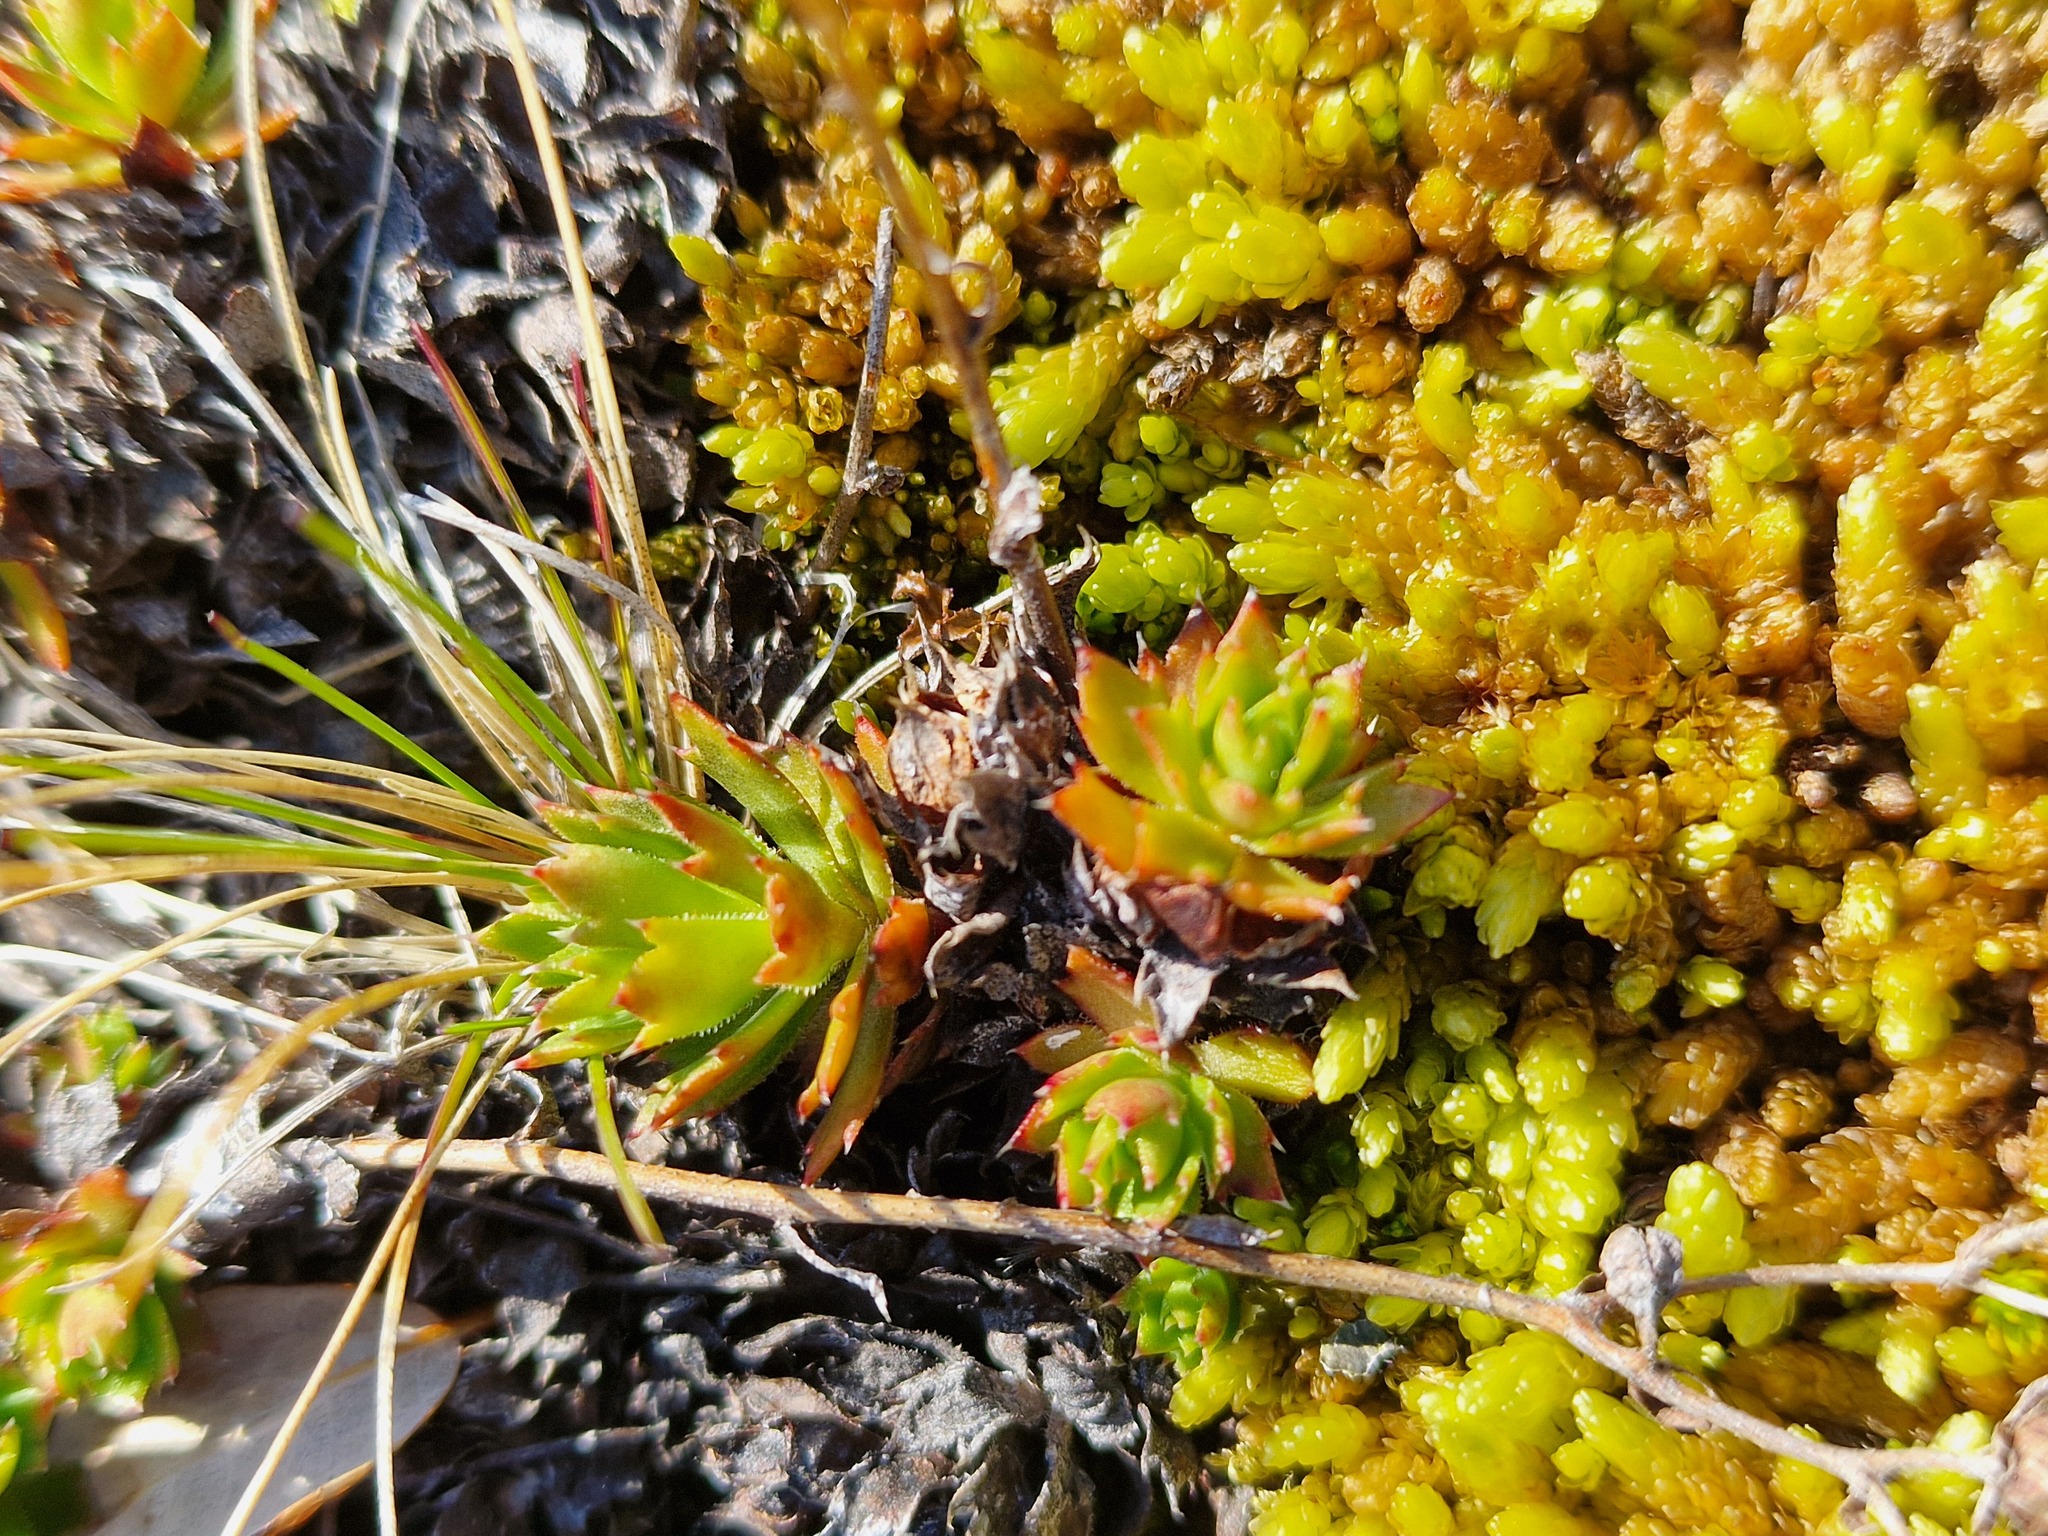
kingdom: Plantae
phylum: Tracheophyta
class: Magnoliopsida
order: Saxifragales
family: Saxifragaceae
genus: Saxifraga
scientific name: Saxifraga tricuspidata
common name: Prickly saxifrage
